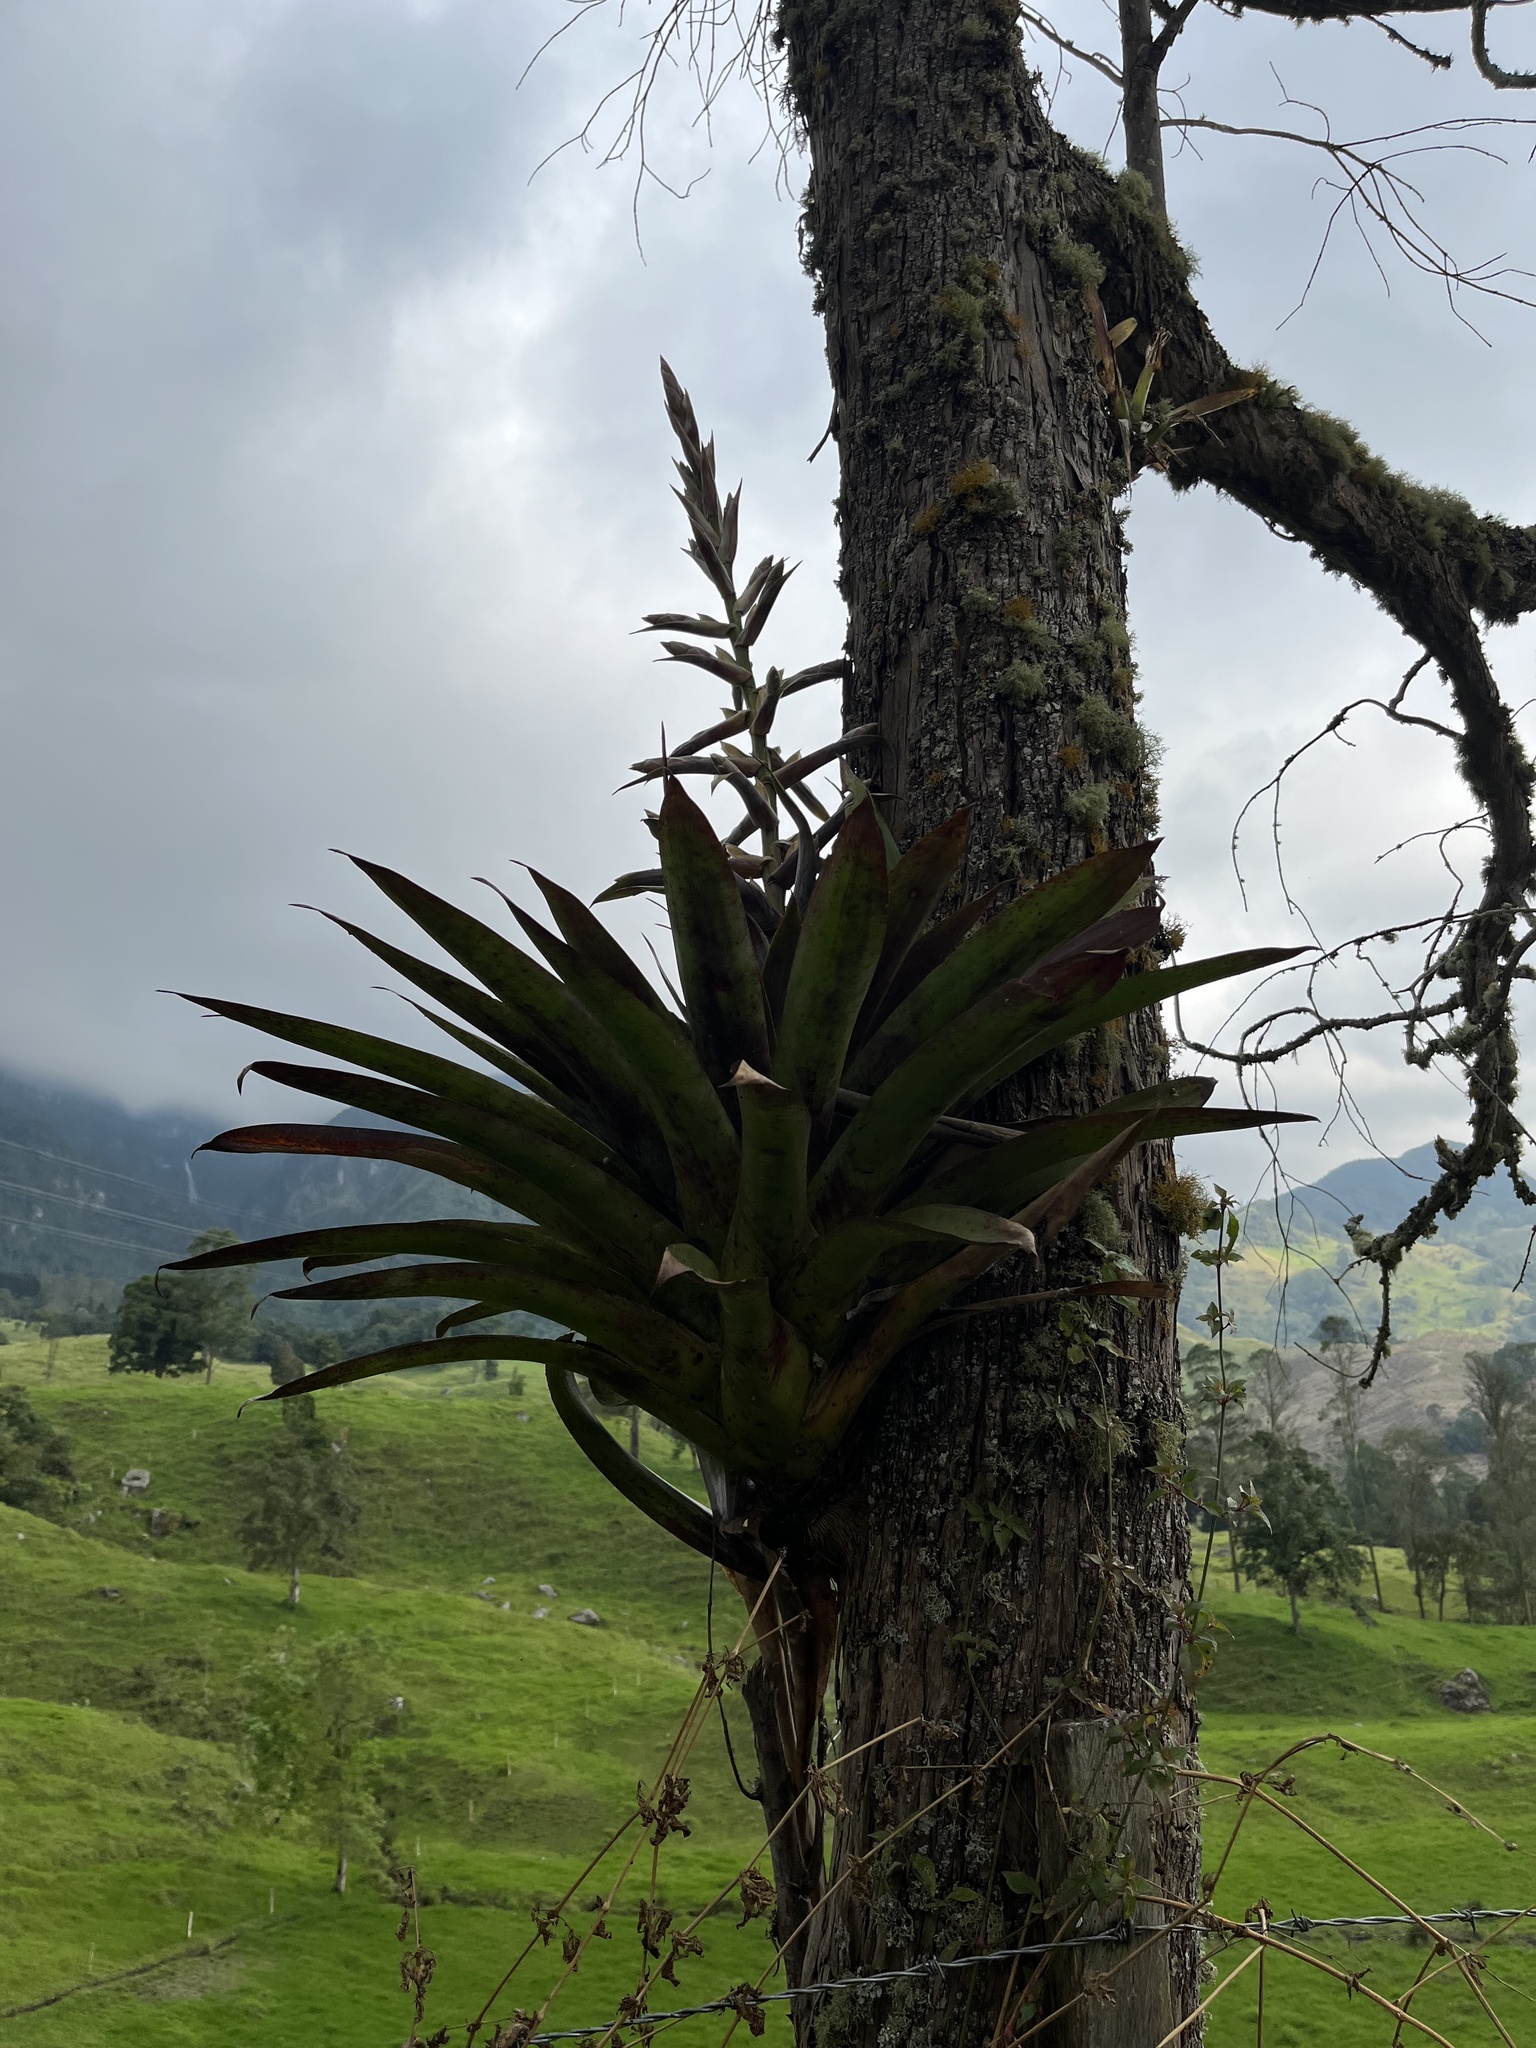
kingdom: Plantae
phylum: Tracheophyta
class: Liliopsida
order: Poales
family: Bromeliaceae
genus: Tillandsia
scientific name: Tillandsia fendleri
